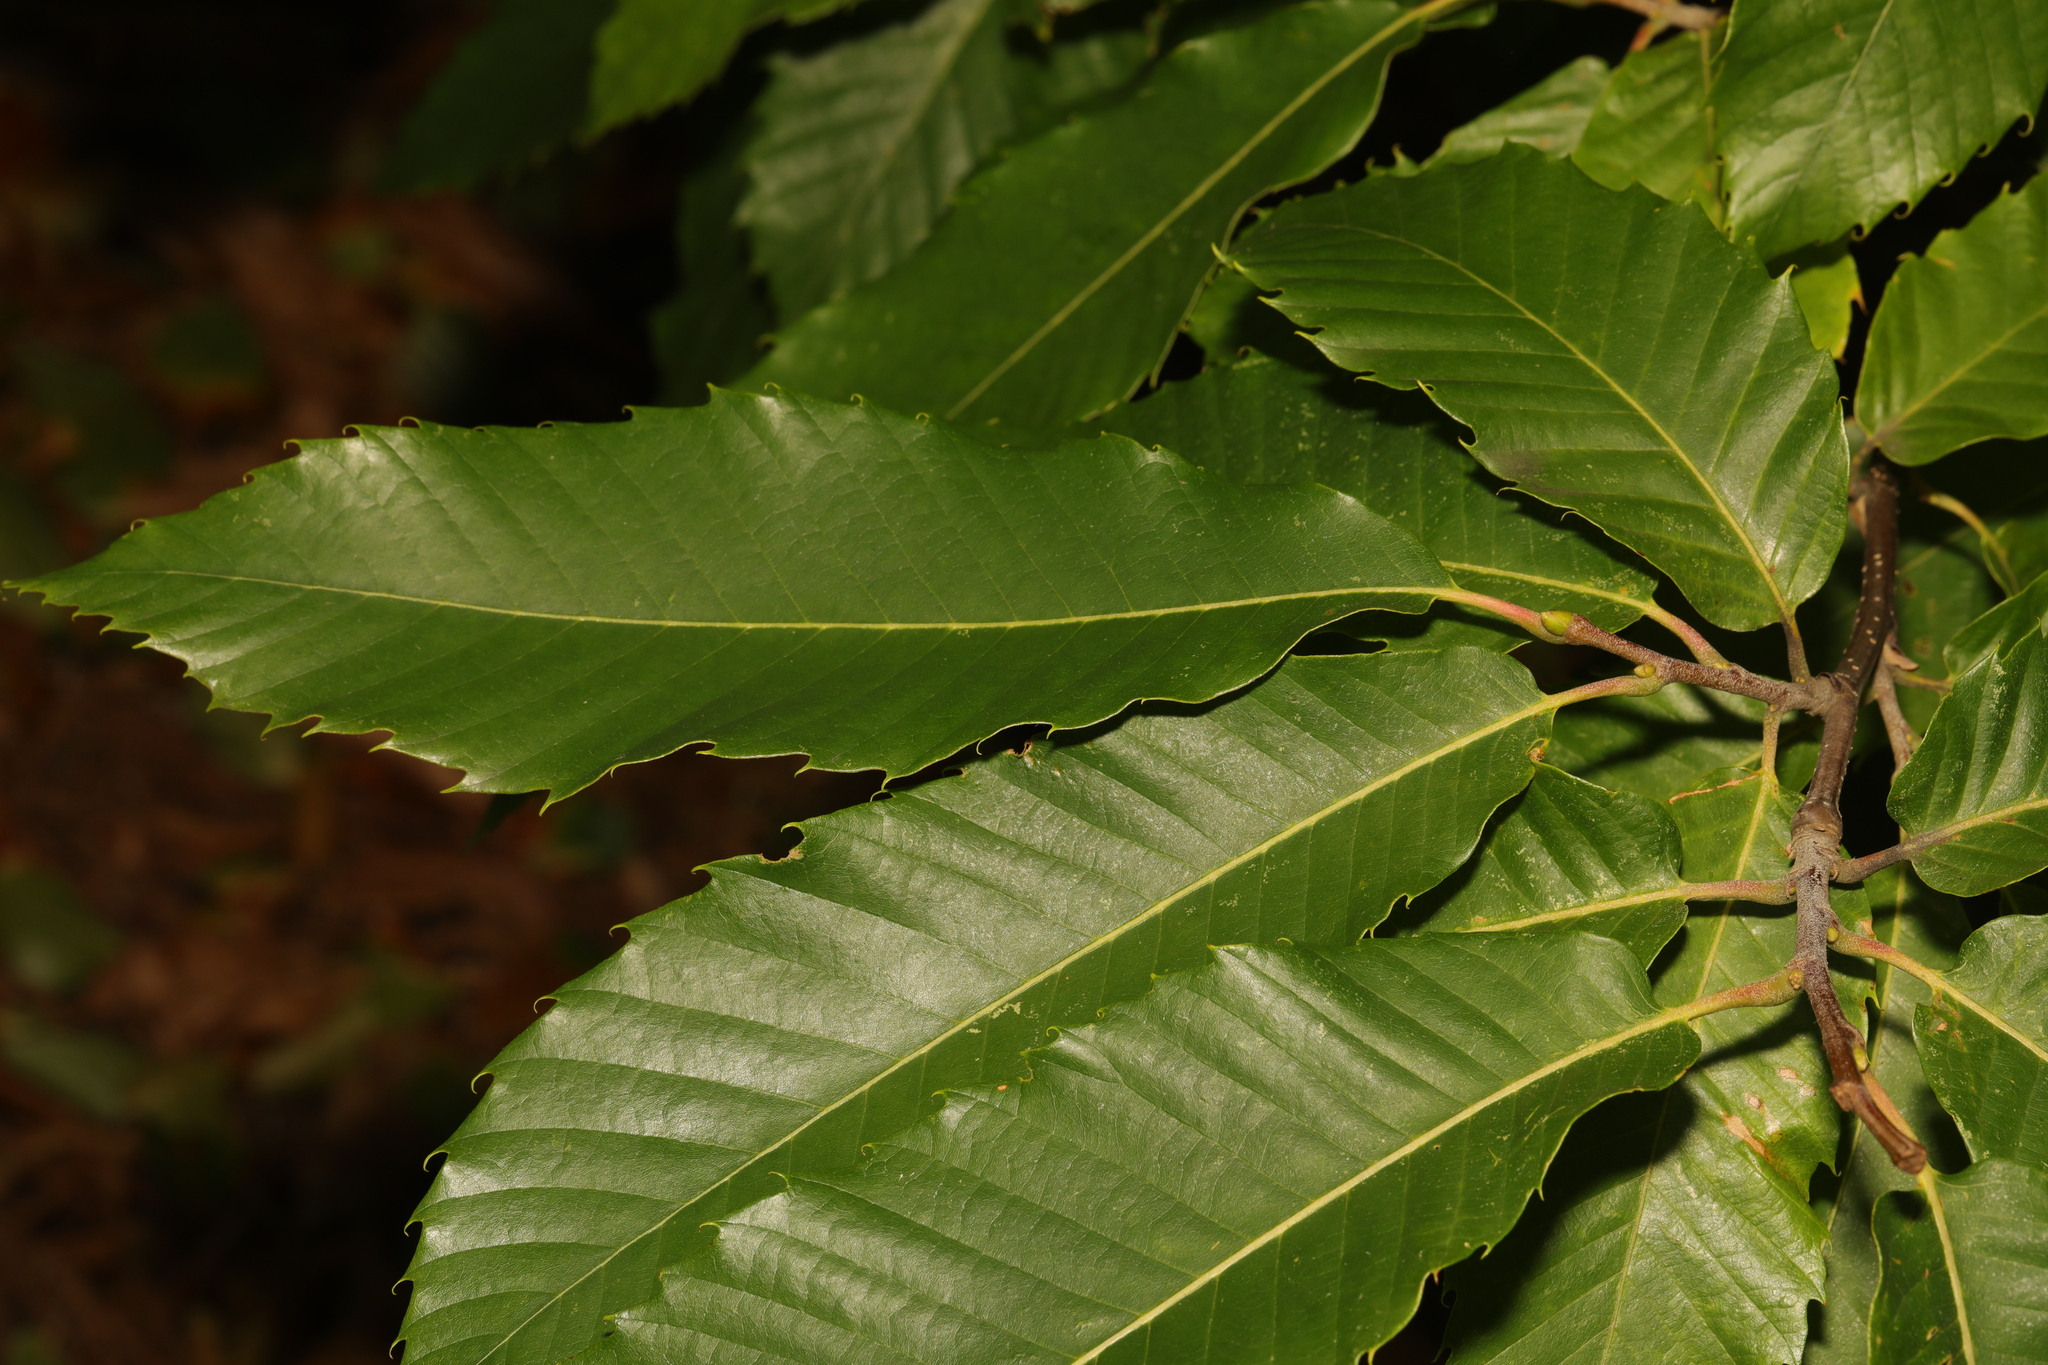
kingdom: Plantae
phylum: Tracheophyta
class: Magnoliopsida
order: Fagales
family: Fagaceae
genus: Castanea
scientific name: Castanea sativa
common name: Sweet chestnut
